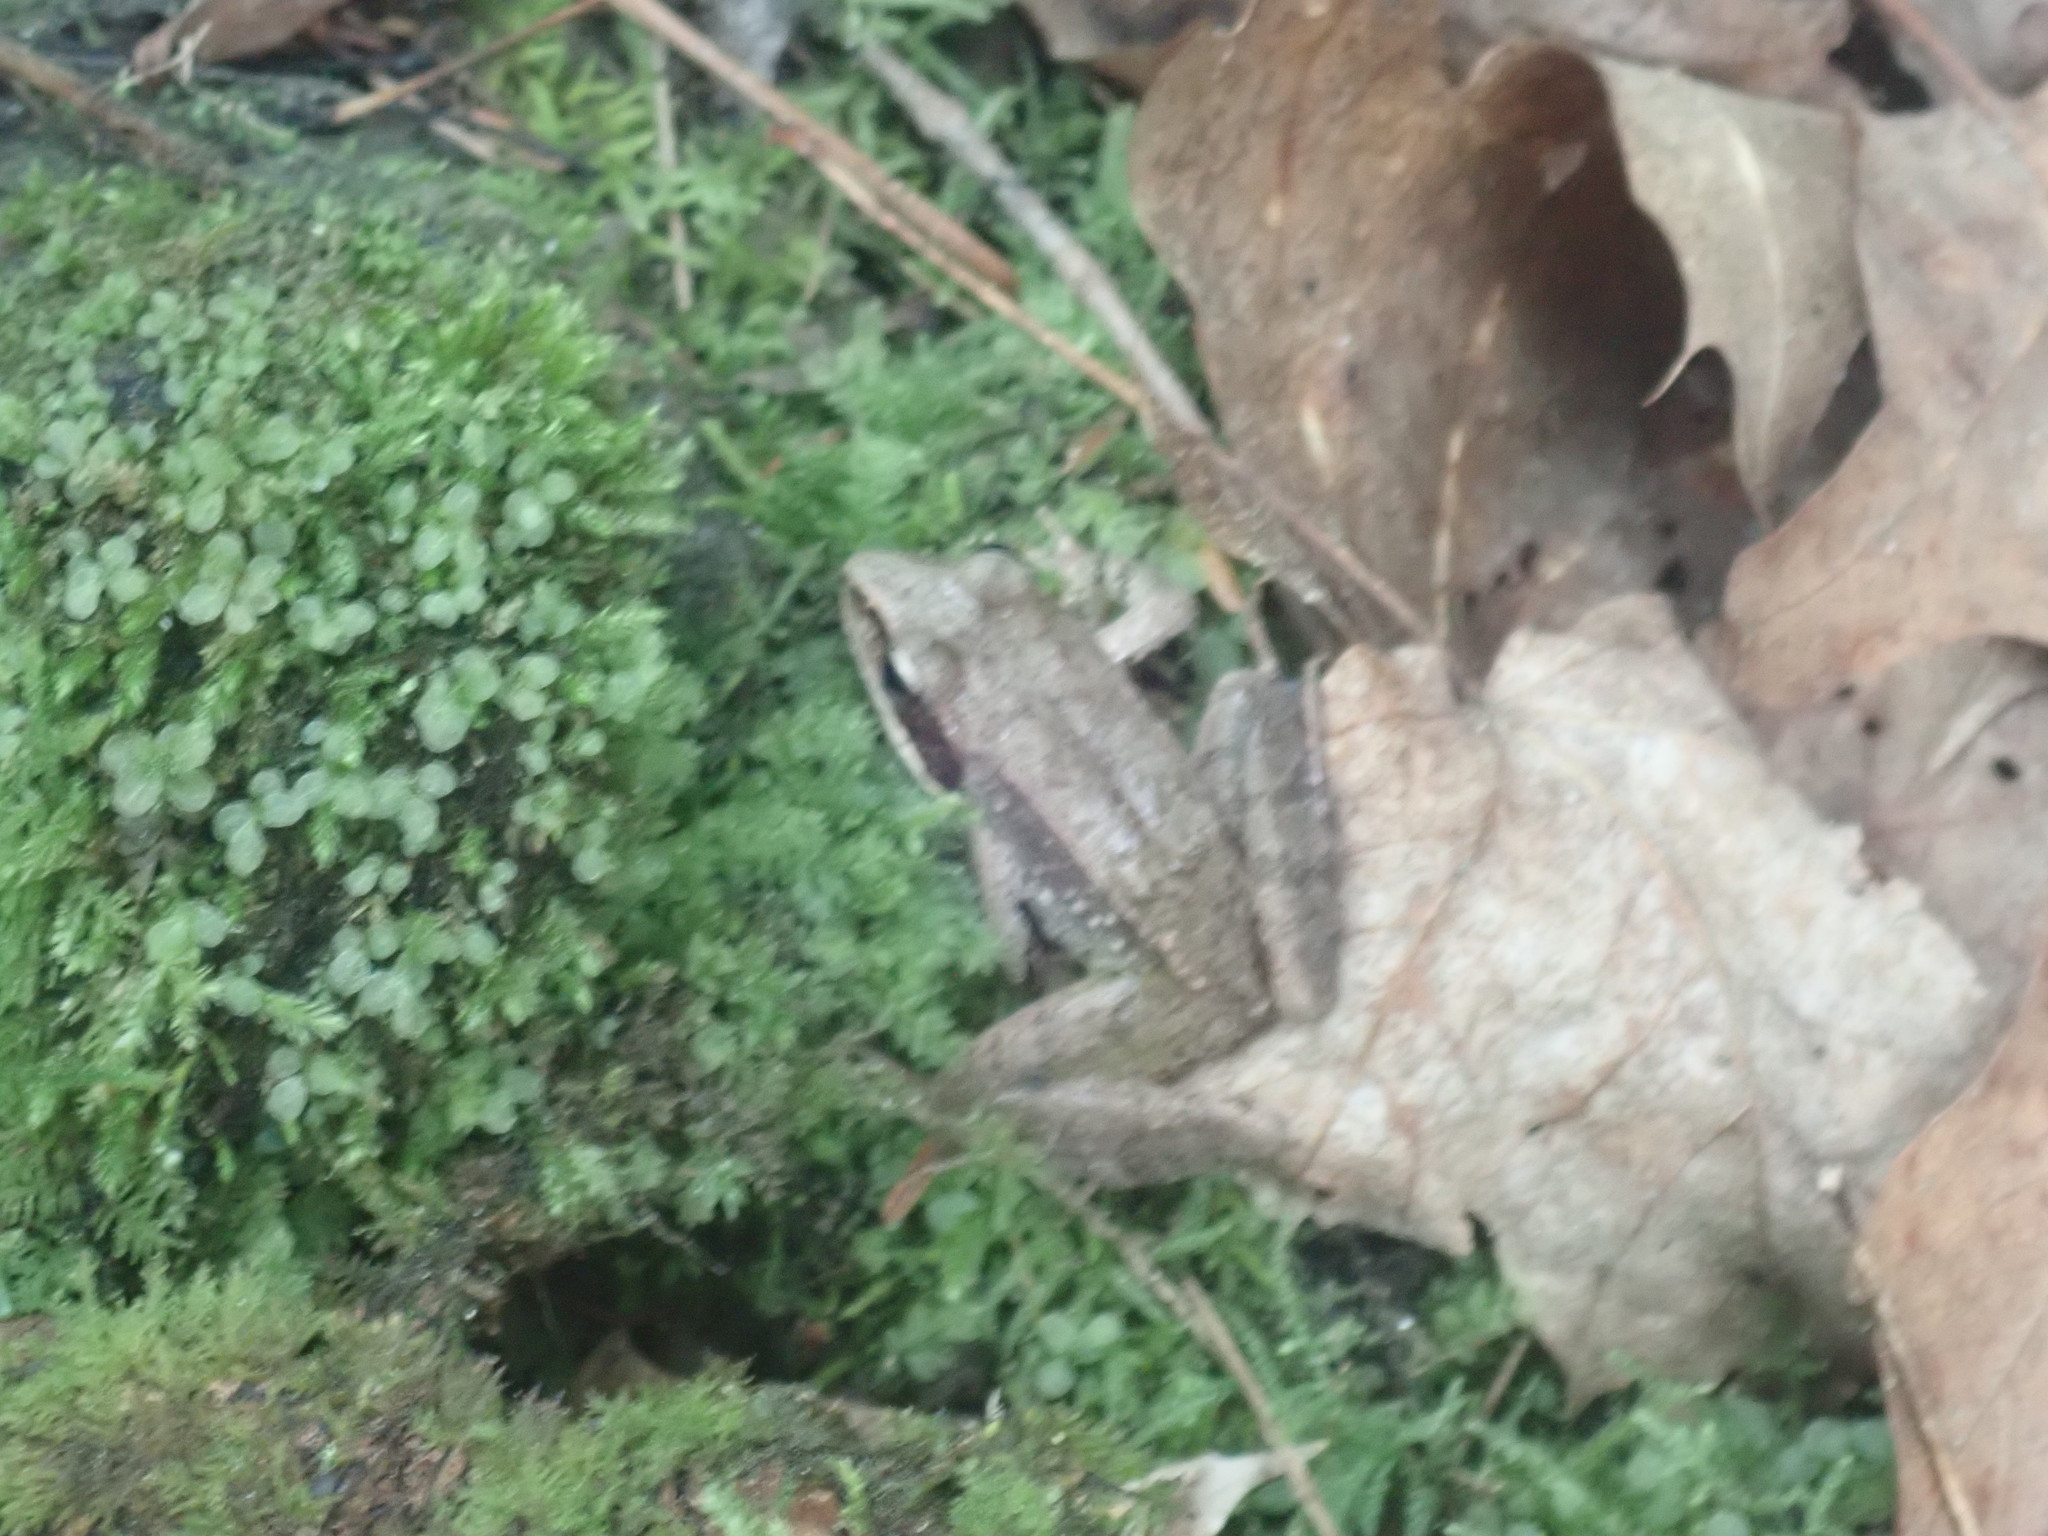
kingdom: Animalia
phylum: Chordata
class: Amphibia
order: Anura
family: Ranidae
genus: Lithobates
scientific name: Lithobates sylvaticus
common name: Wood frog
